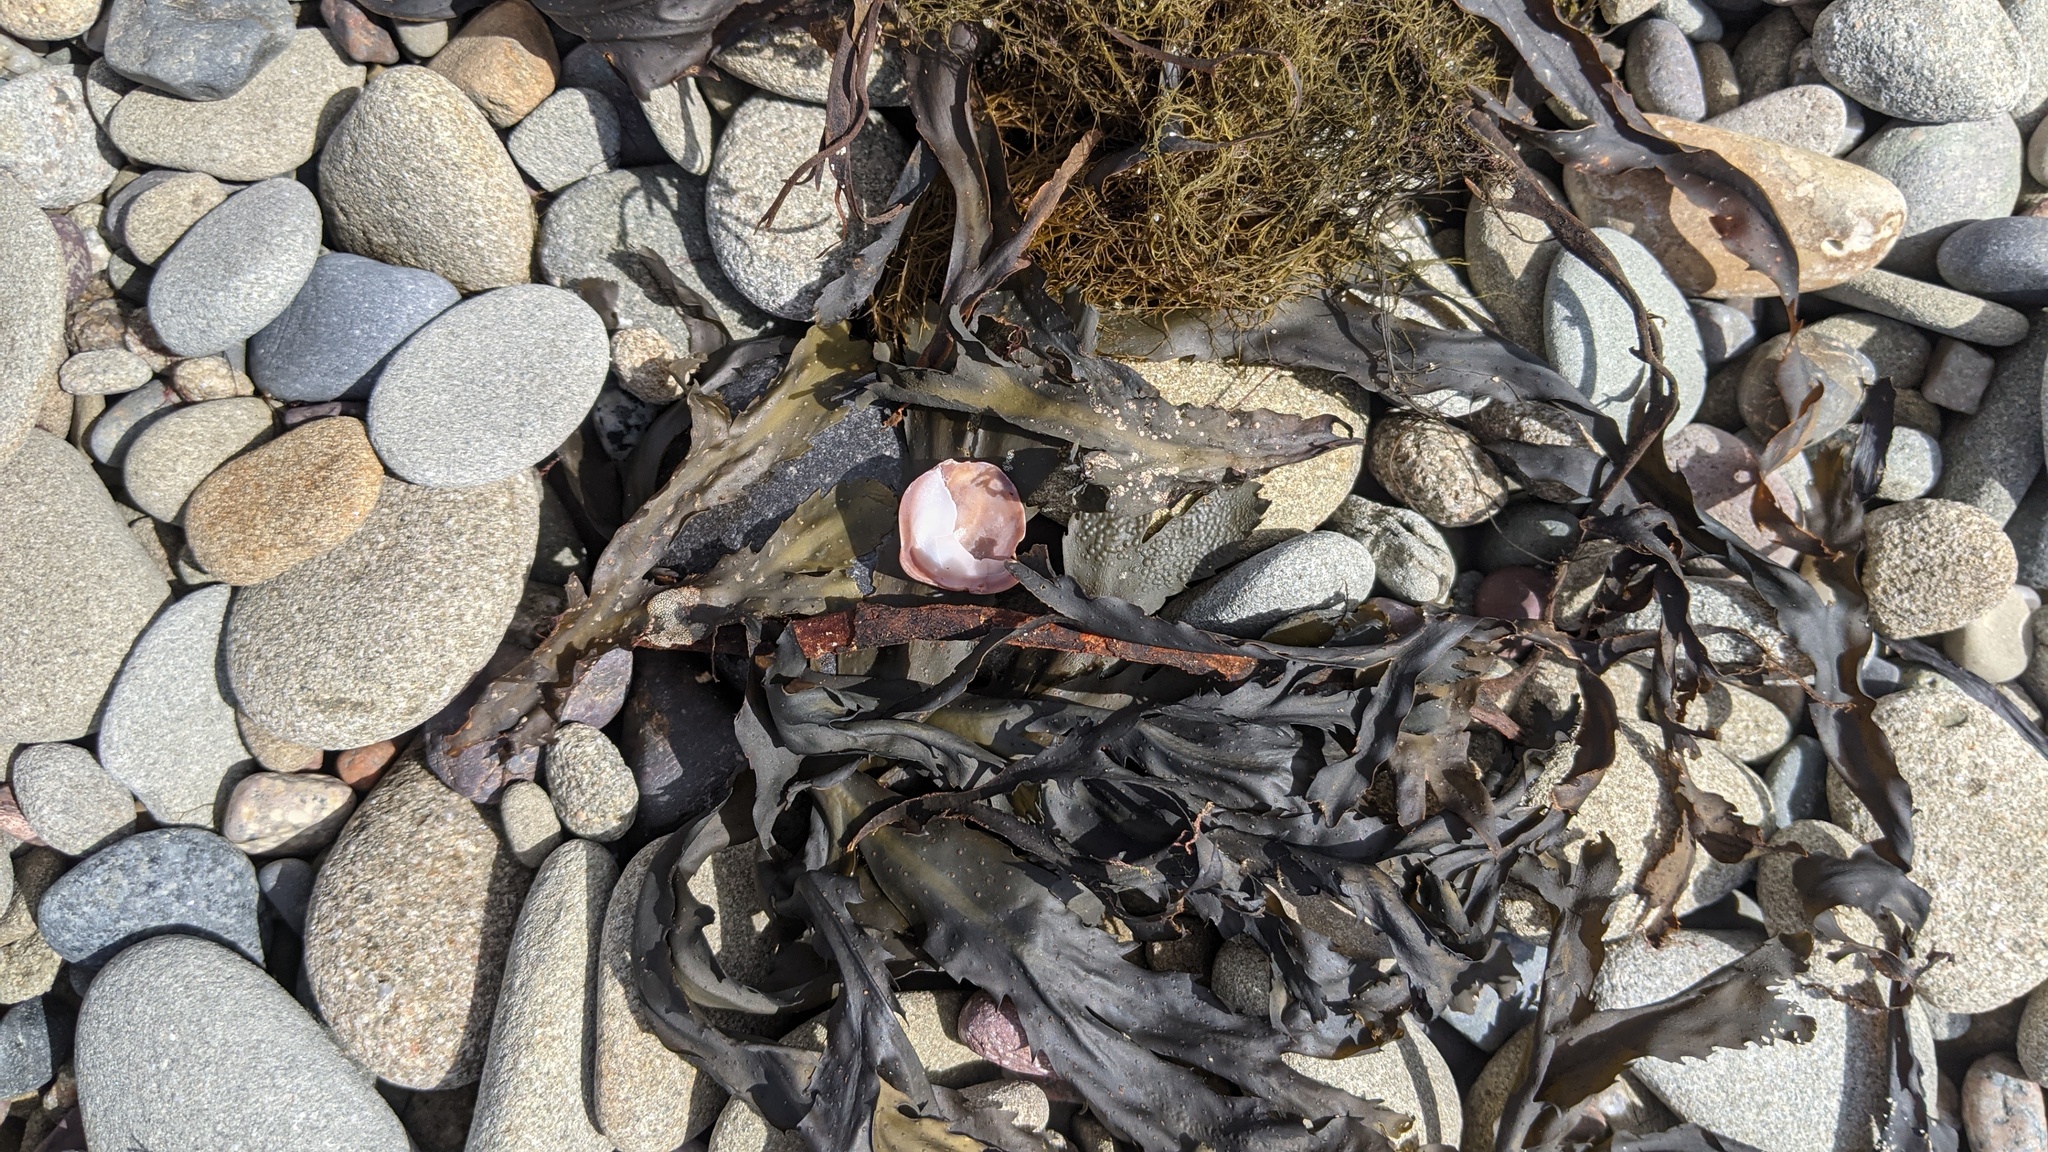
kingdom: Animalia
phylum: Mollusca
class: Gastropoda
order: Littorinimorpha
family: Calyptraeidae
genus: Crepidula
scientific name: Crepidula fornicata
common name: Slipper limpet
